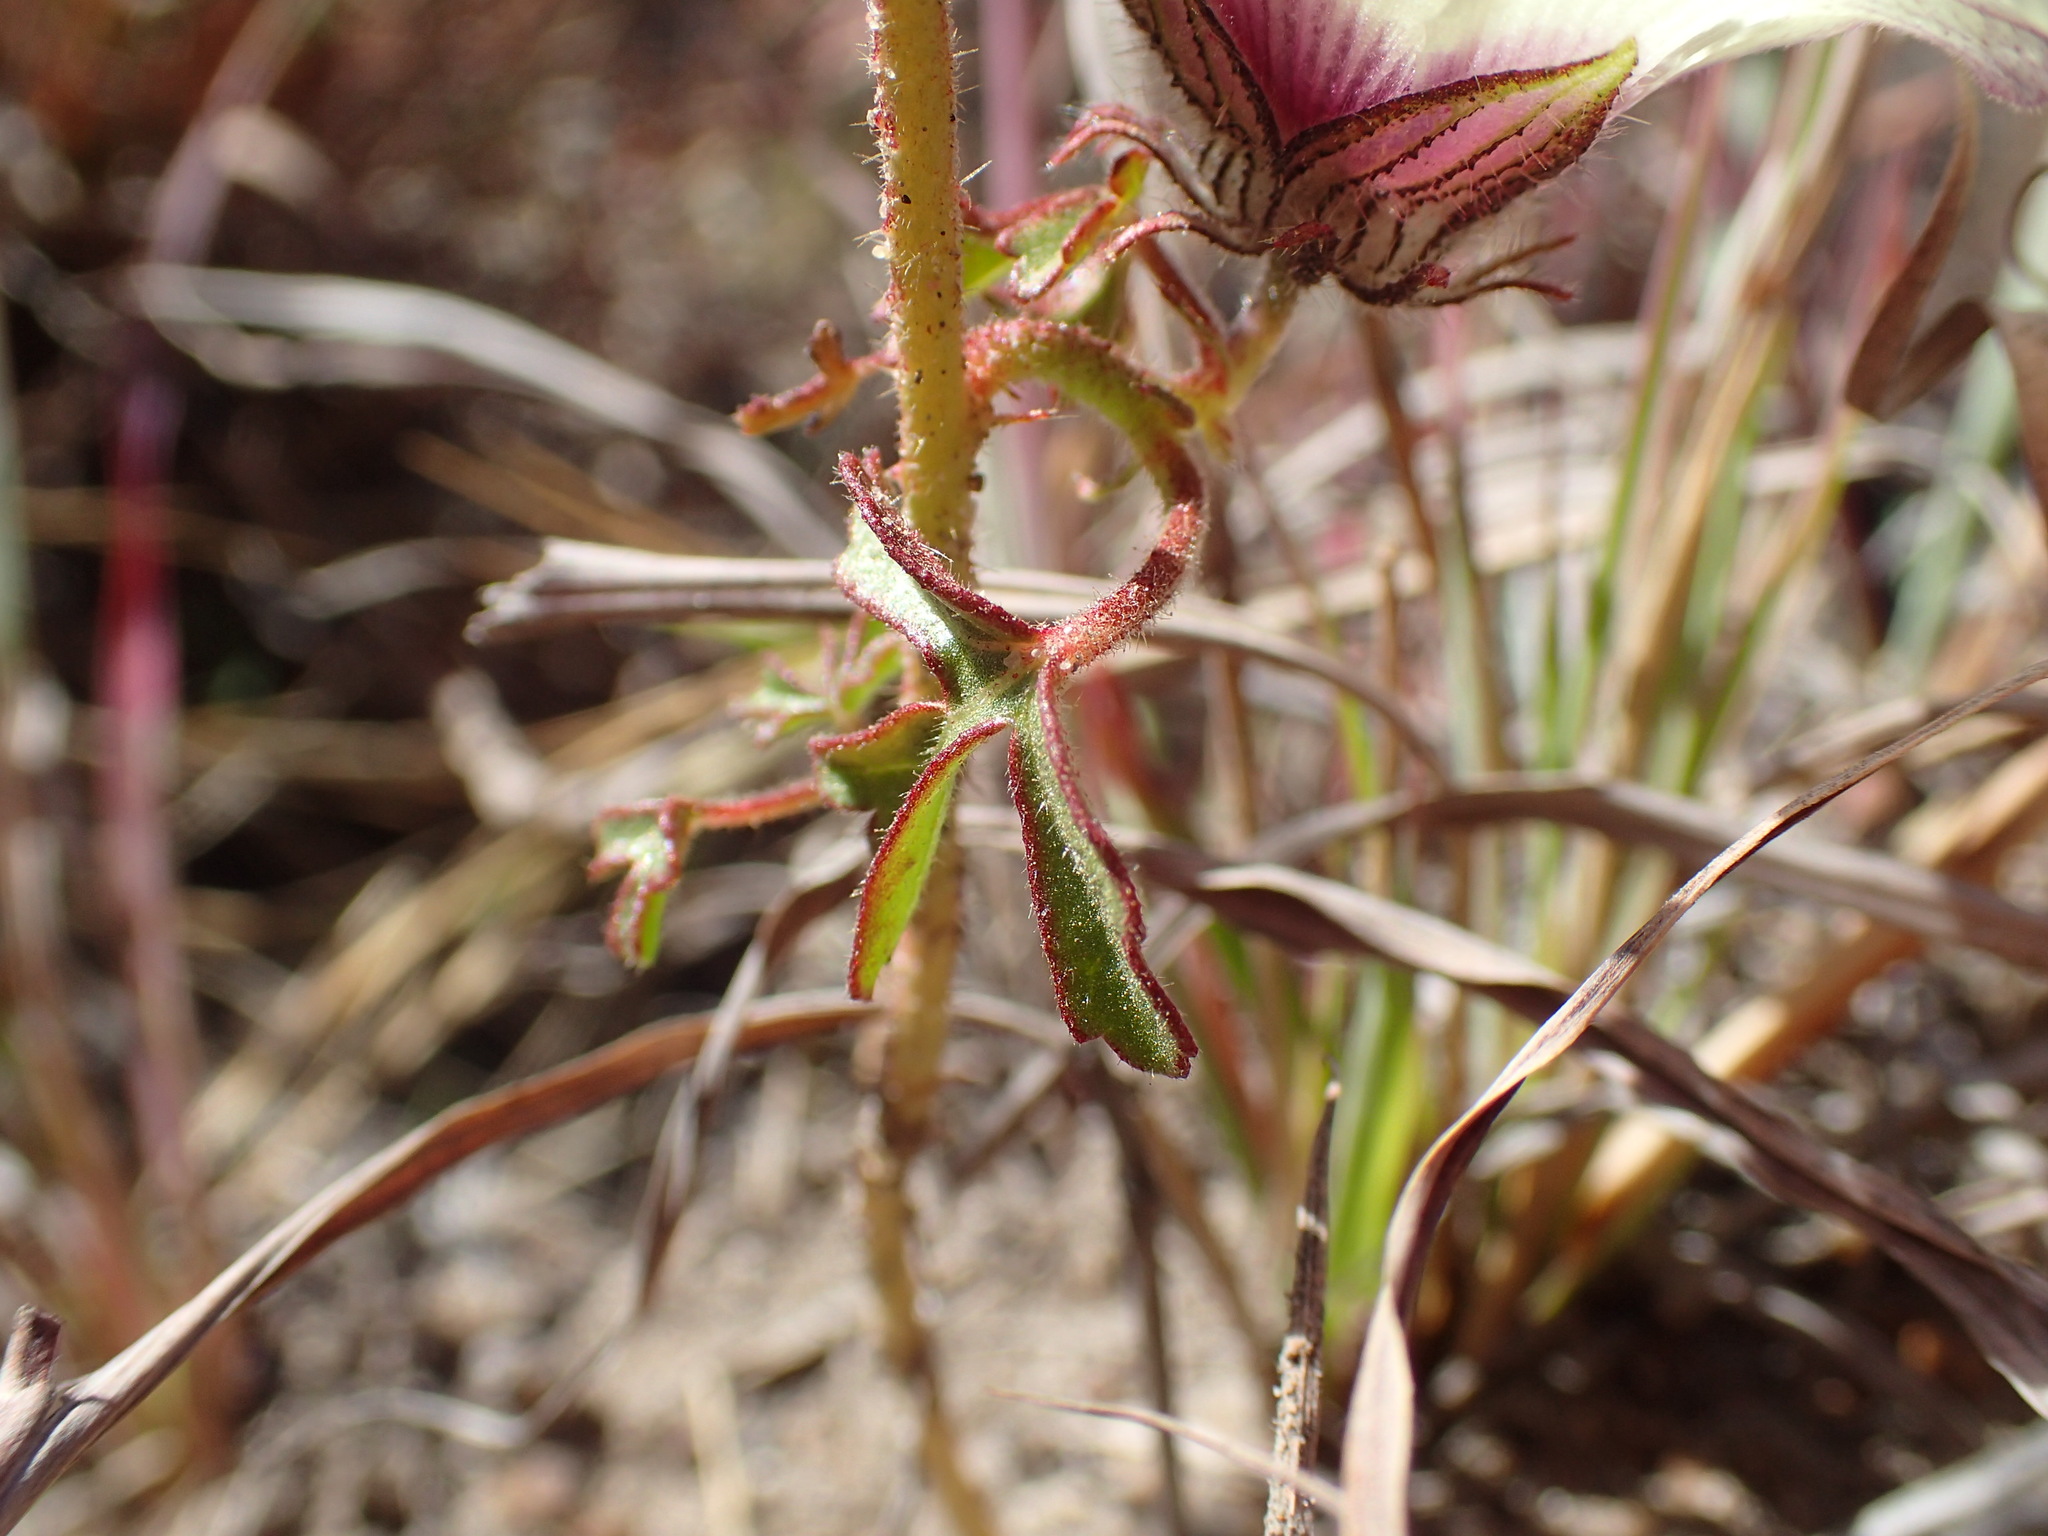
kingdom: Plantae
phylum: Tracheophyta
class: Magnoliopsida
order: Malvales
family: Malvaceae
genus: Hibiscus
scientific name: Hibiscus trionum
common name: Bladder ketmia
